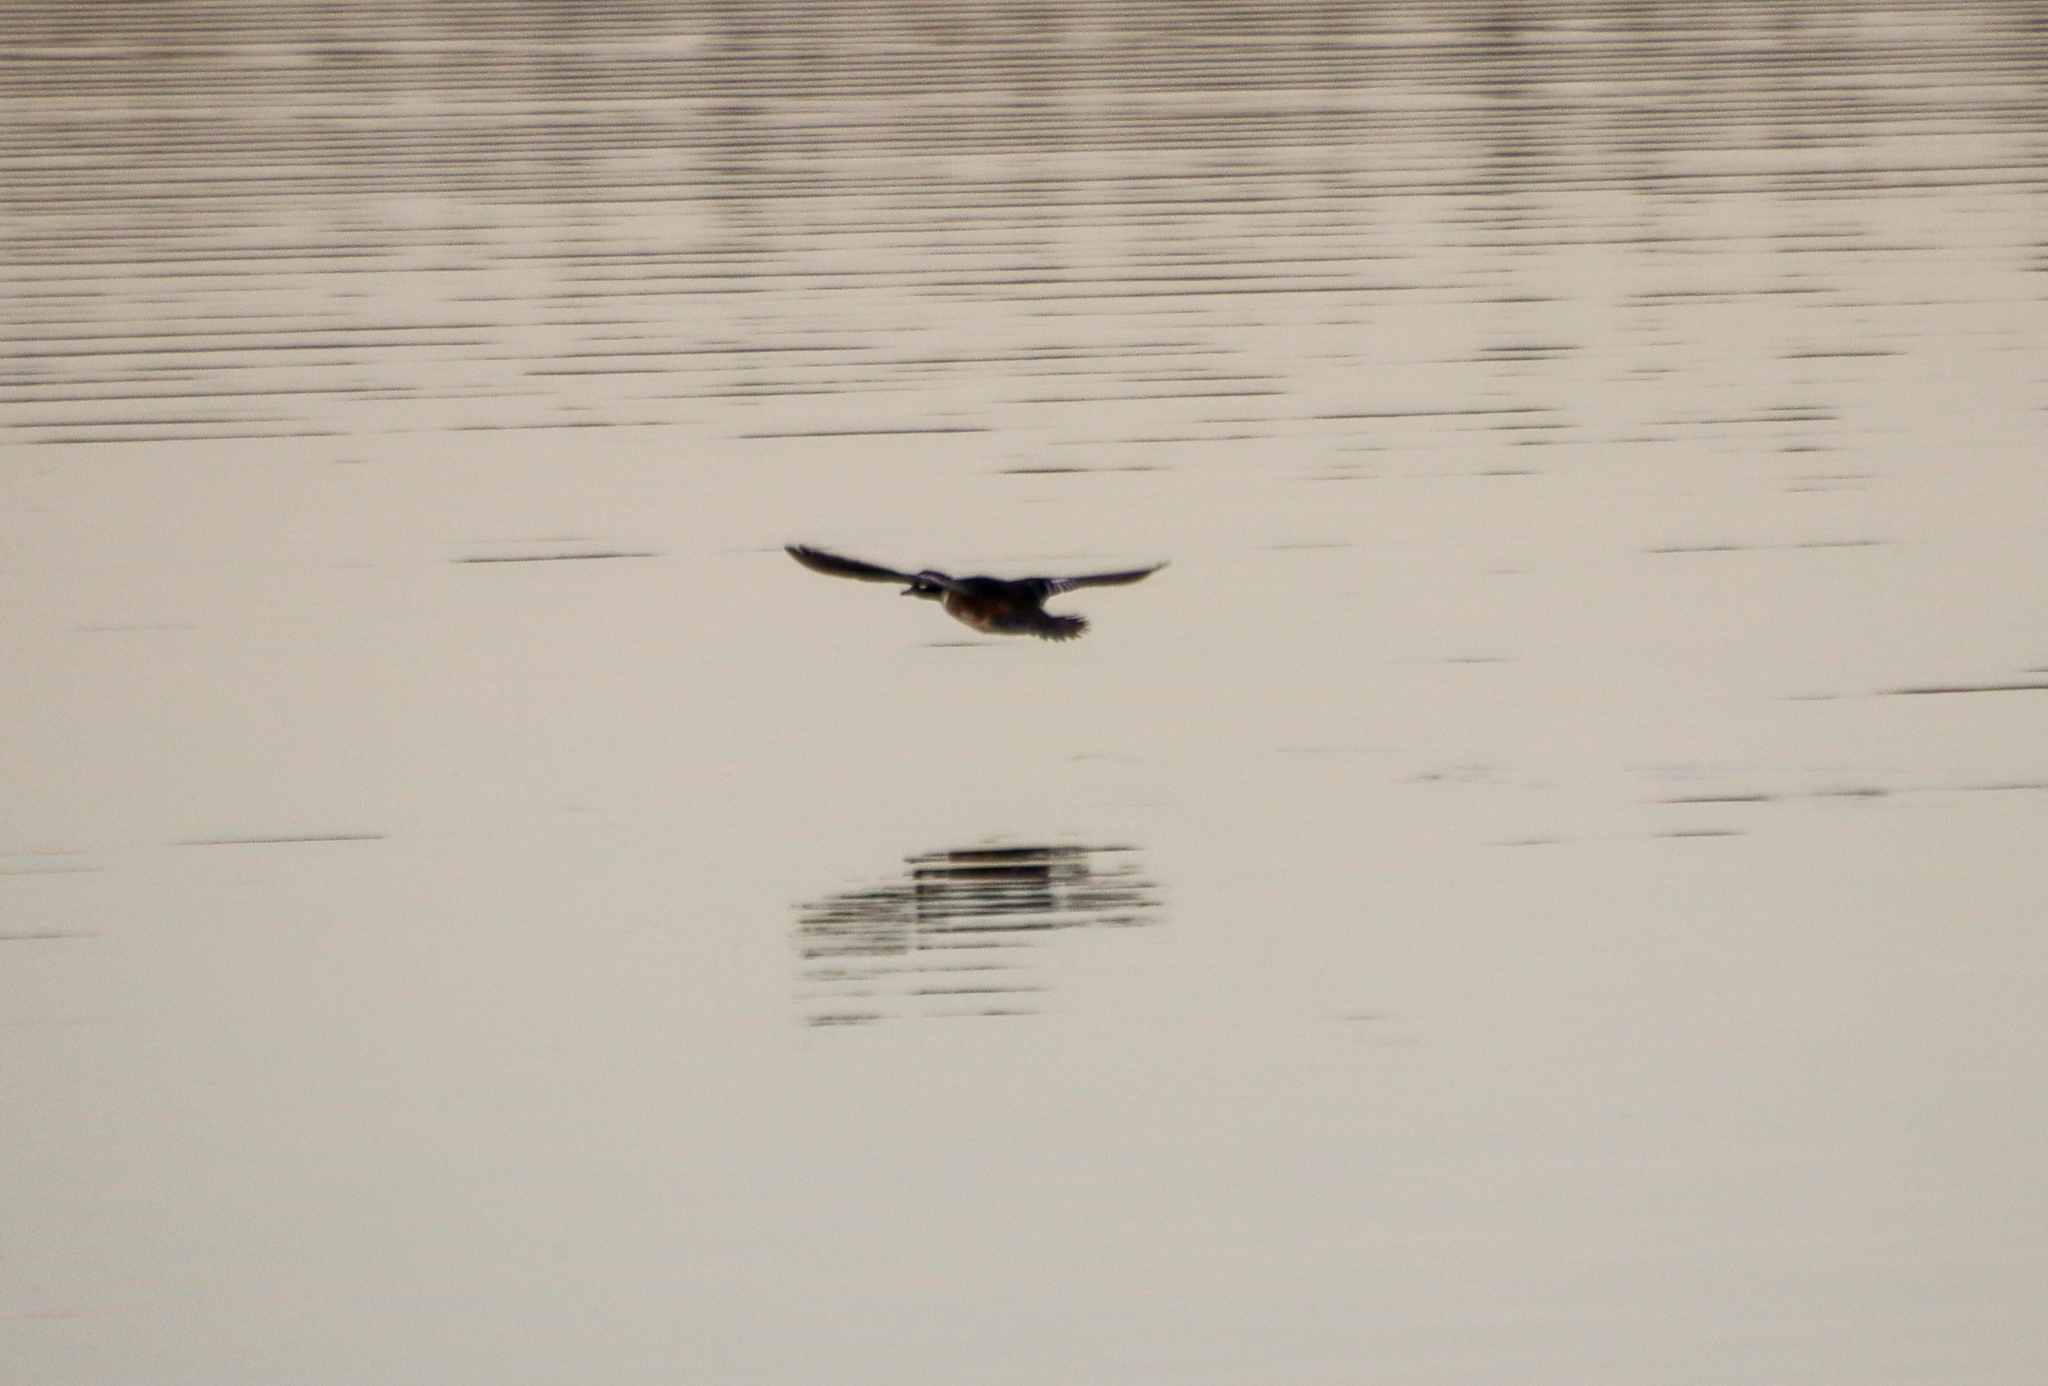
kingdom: Animalia
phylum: Chordata
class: Aves
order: Anseriformes
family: Anatidae
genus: Lophodytes
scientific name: Lophodytes cucullatus
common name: Hooded merganser
